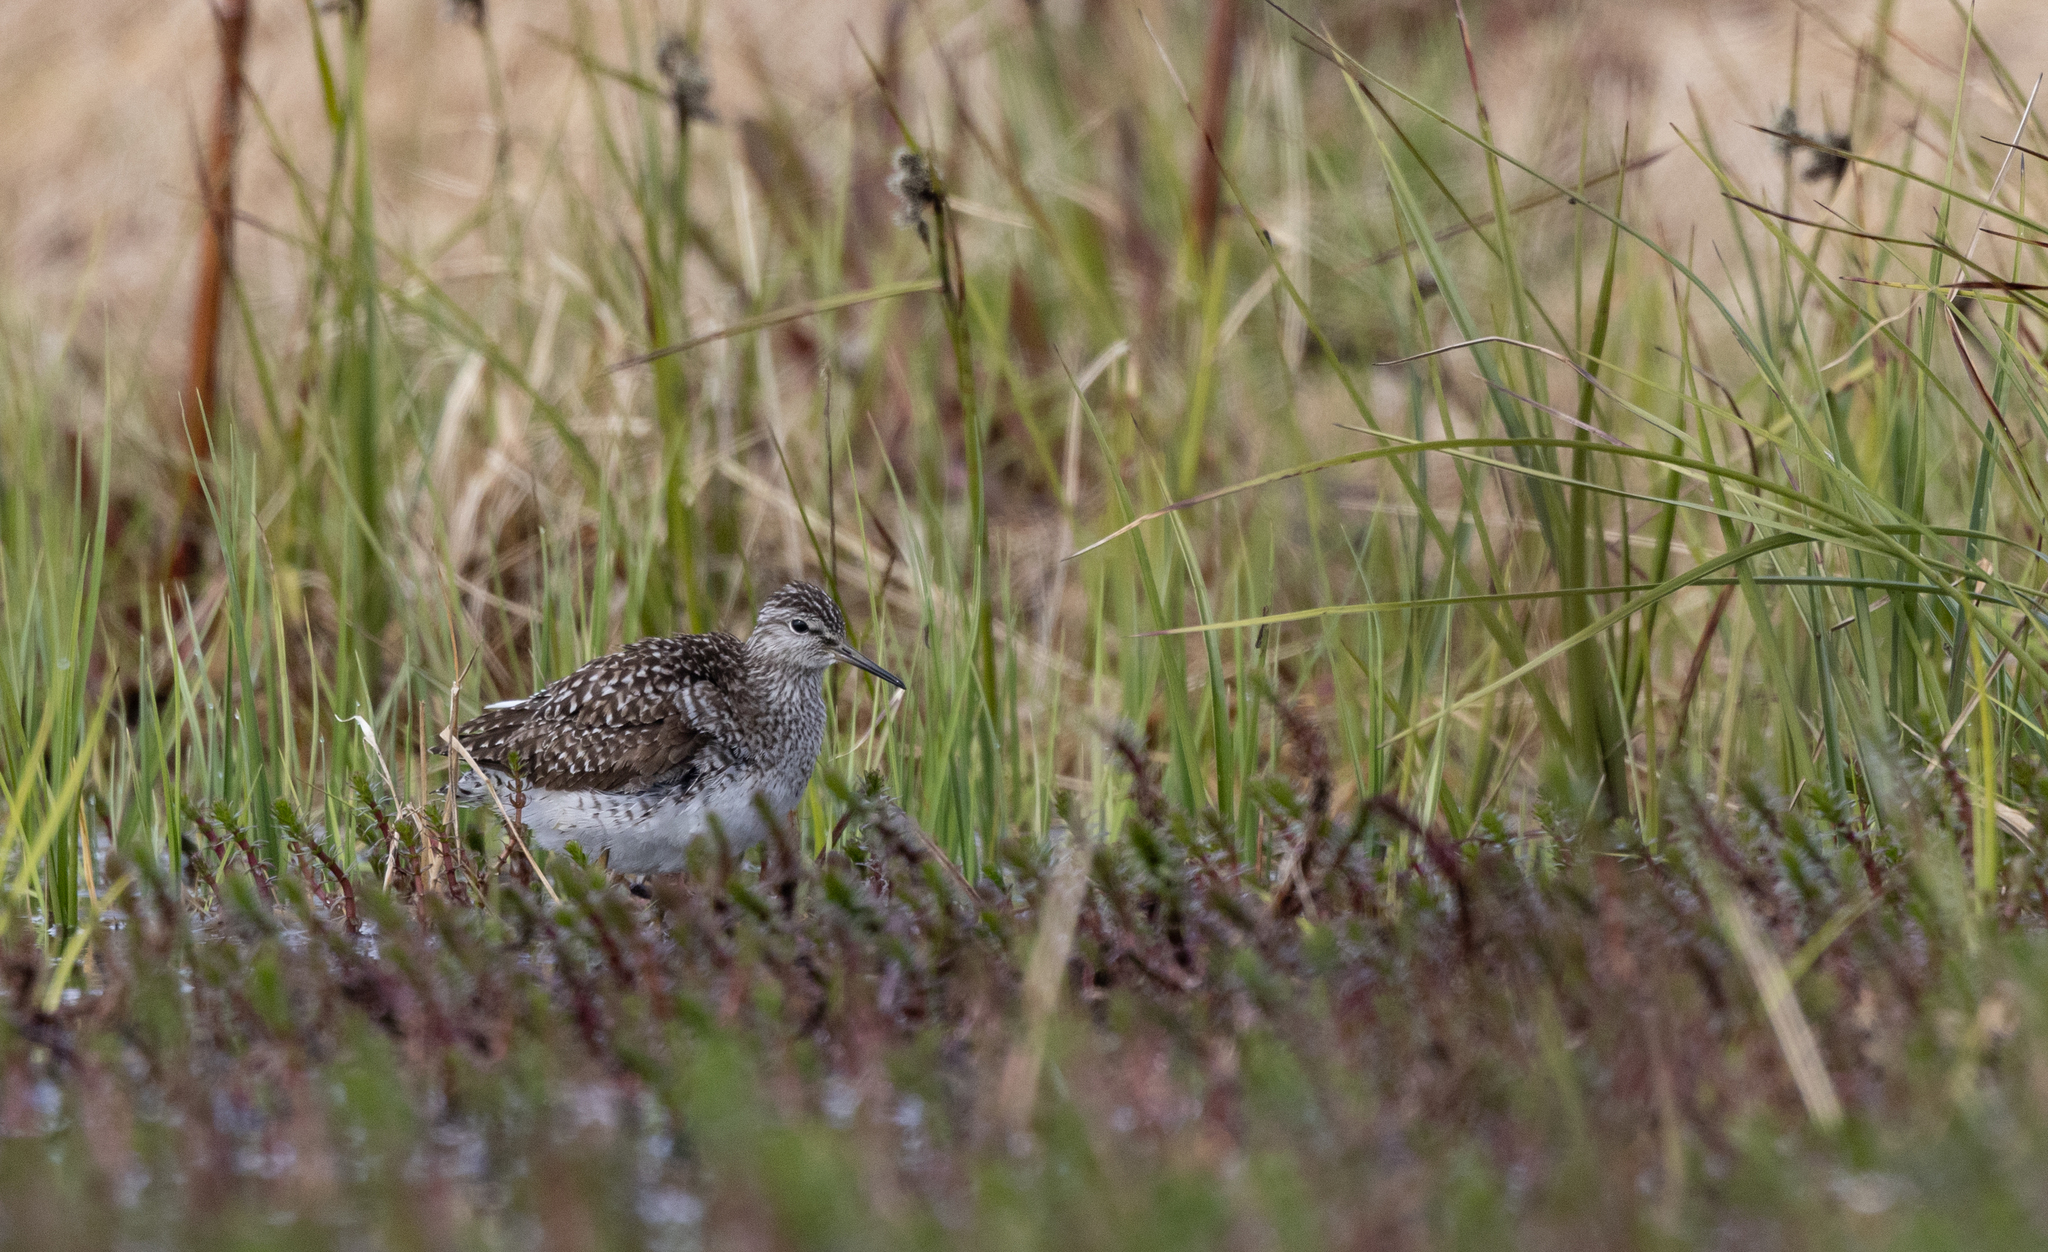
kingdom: Animalia
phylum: Chordata
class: Aves
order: Charadriiformes
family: Scolopacidae
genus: Tringa
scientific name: Tringa glareola
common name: Wood sandpiper
